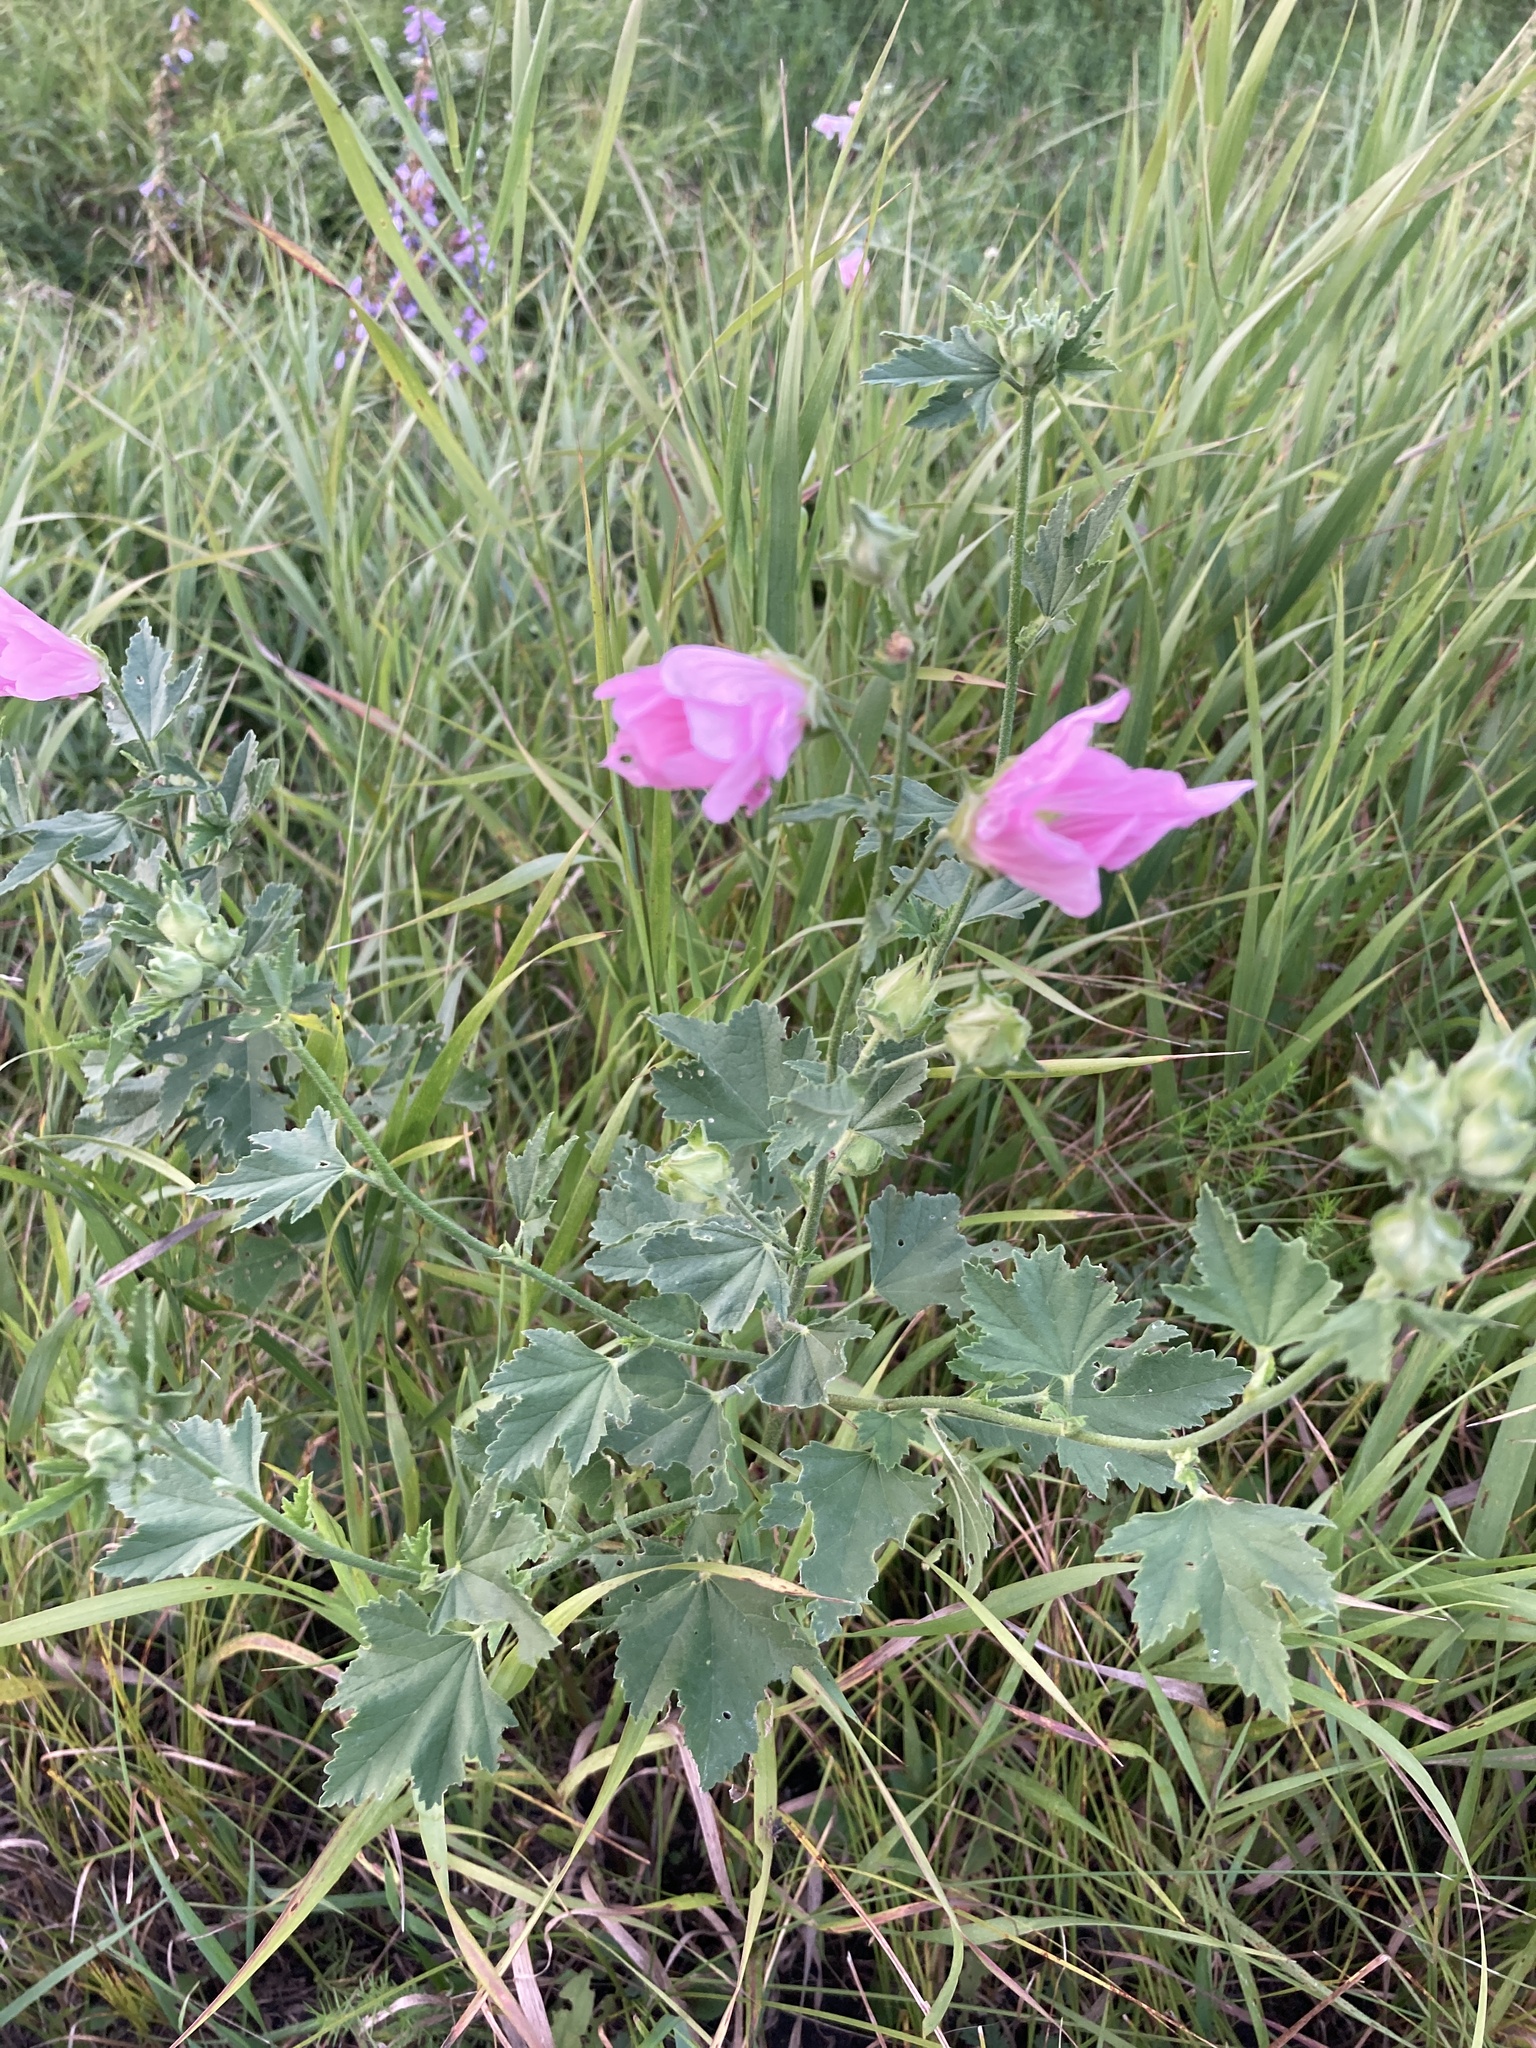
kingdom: Plantae
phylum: Tracheophyta
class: Magnoliopsida
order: Malvales
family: Malvaceae
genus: Malva
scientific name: Malva thuringiaca
